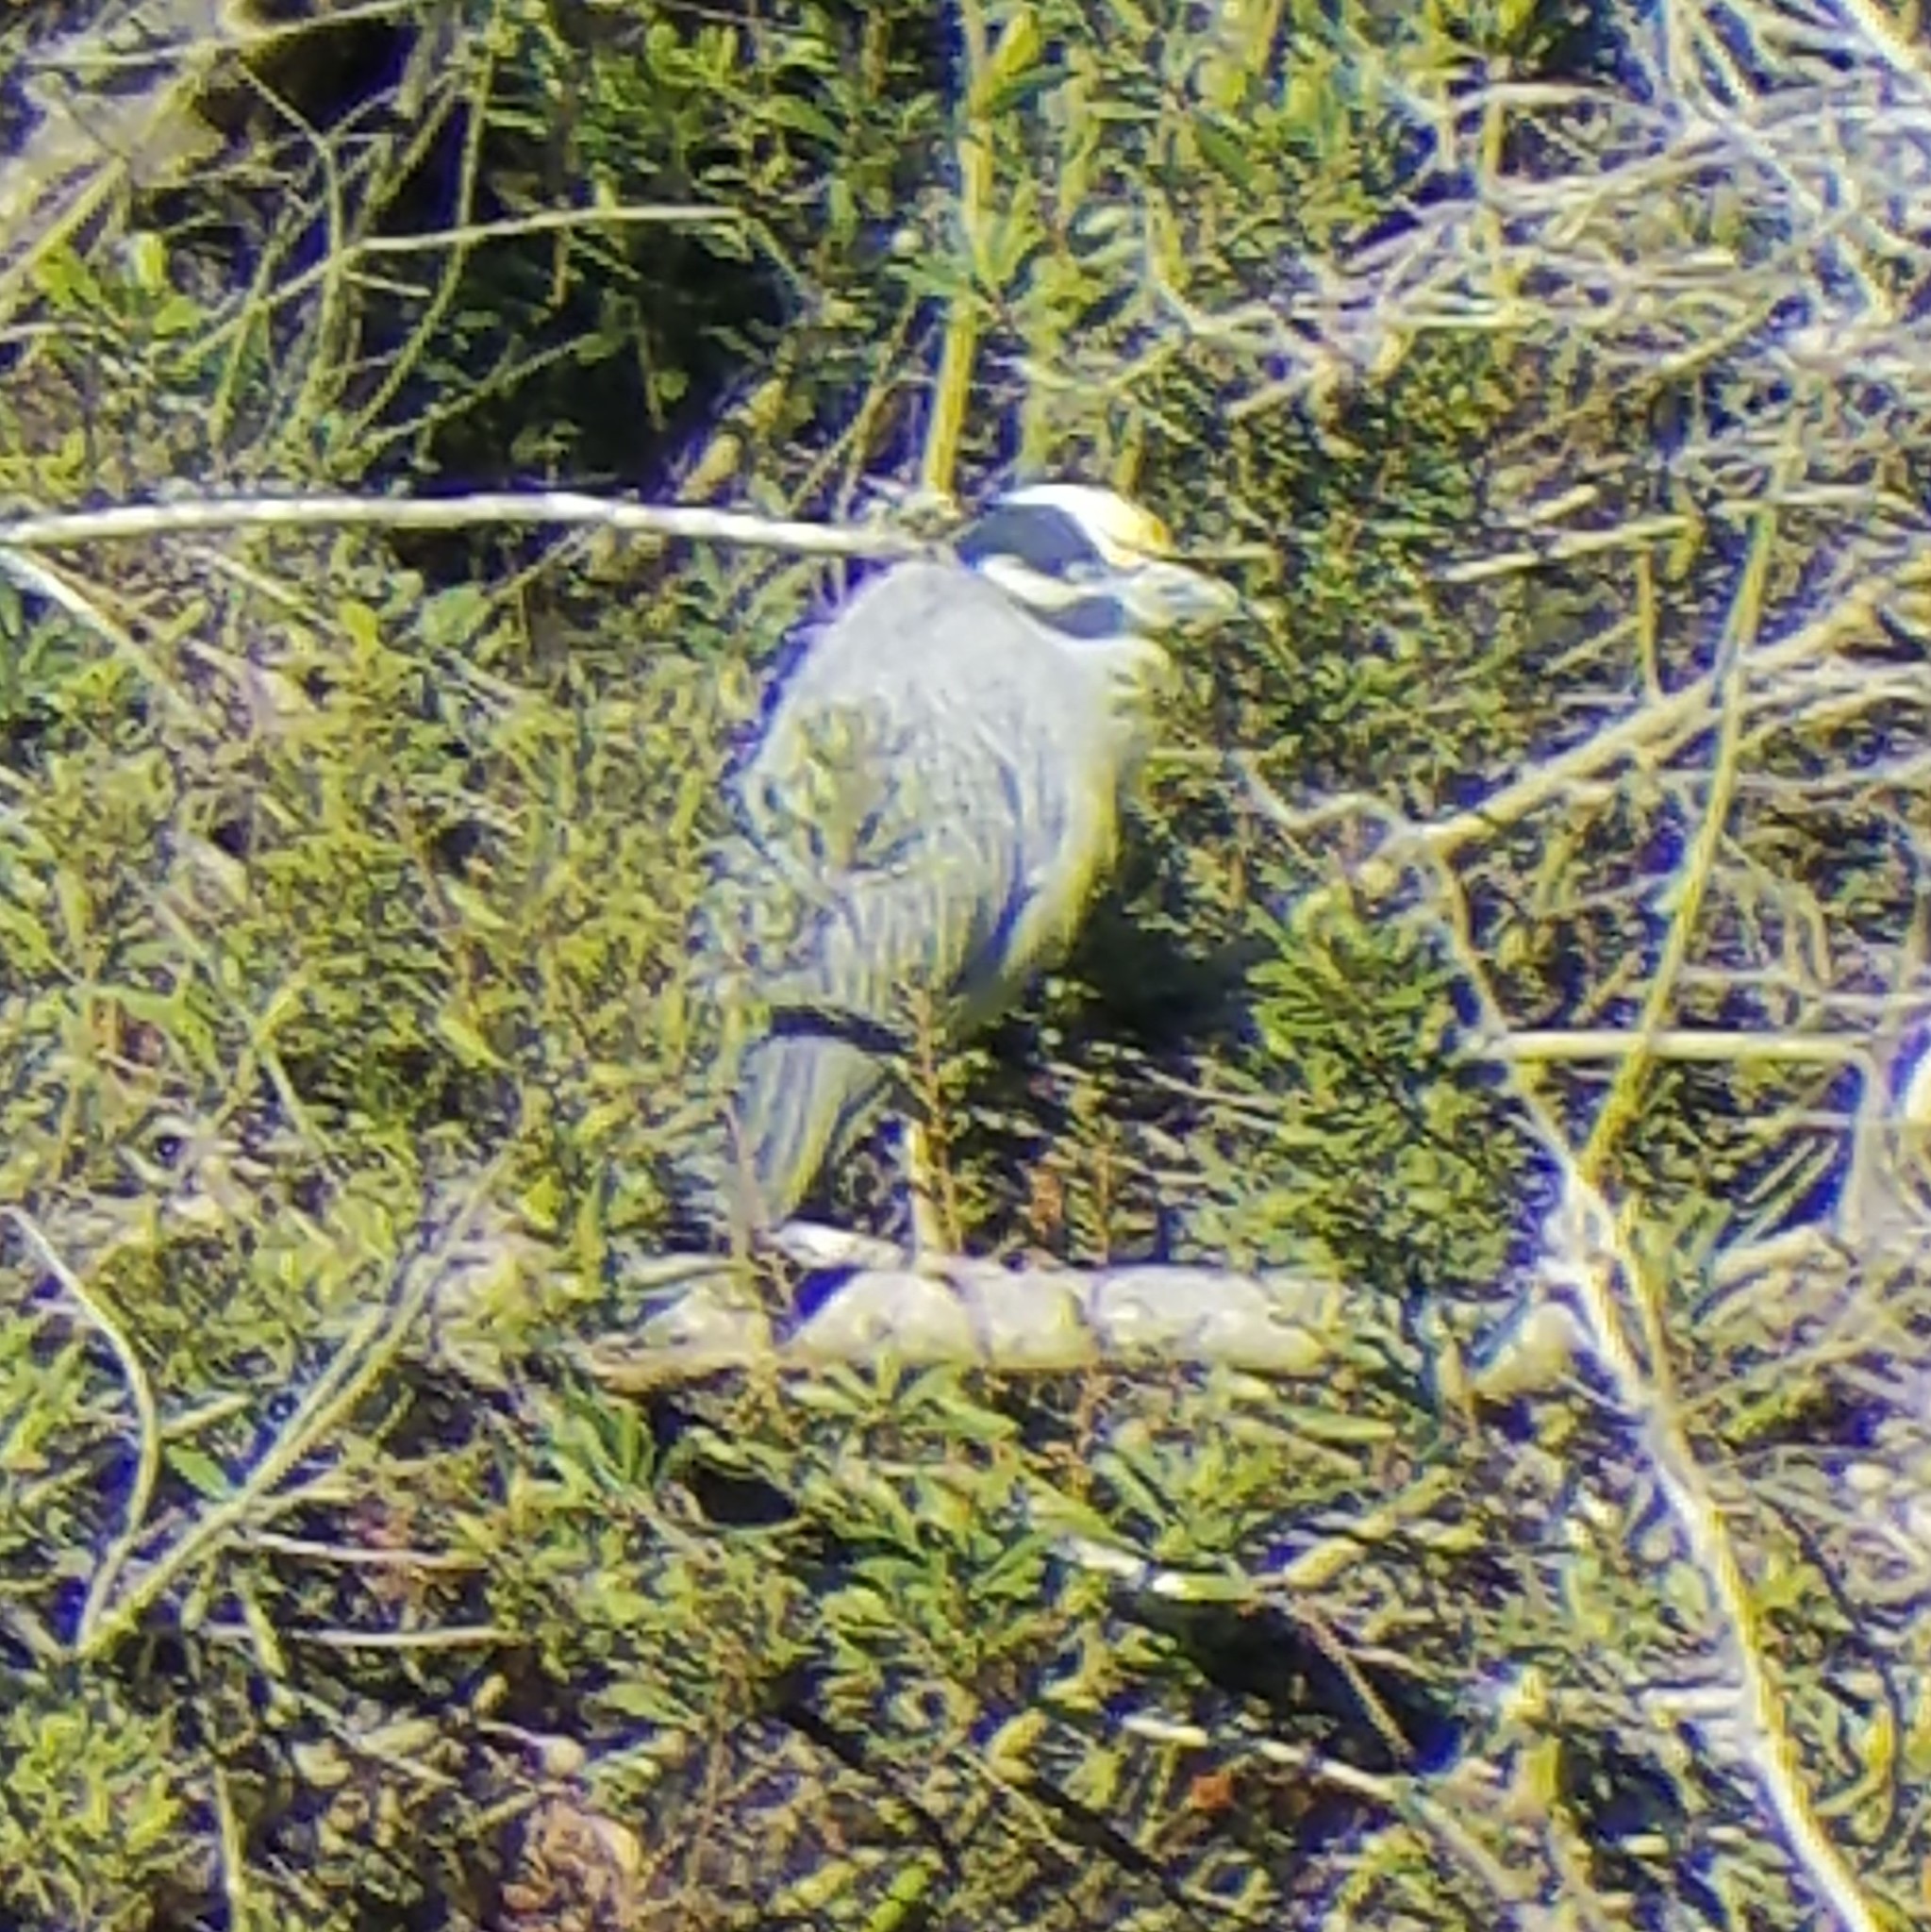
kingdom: Animalia
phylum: Chordata
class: Aves
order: Pelecaniformes
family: Ardeidae
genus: Nyctanassa
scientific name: Nyctanassa violacea
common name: Yellow-crowned night heron
